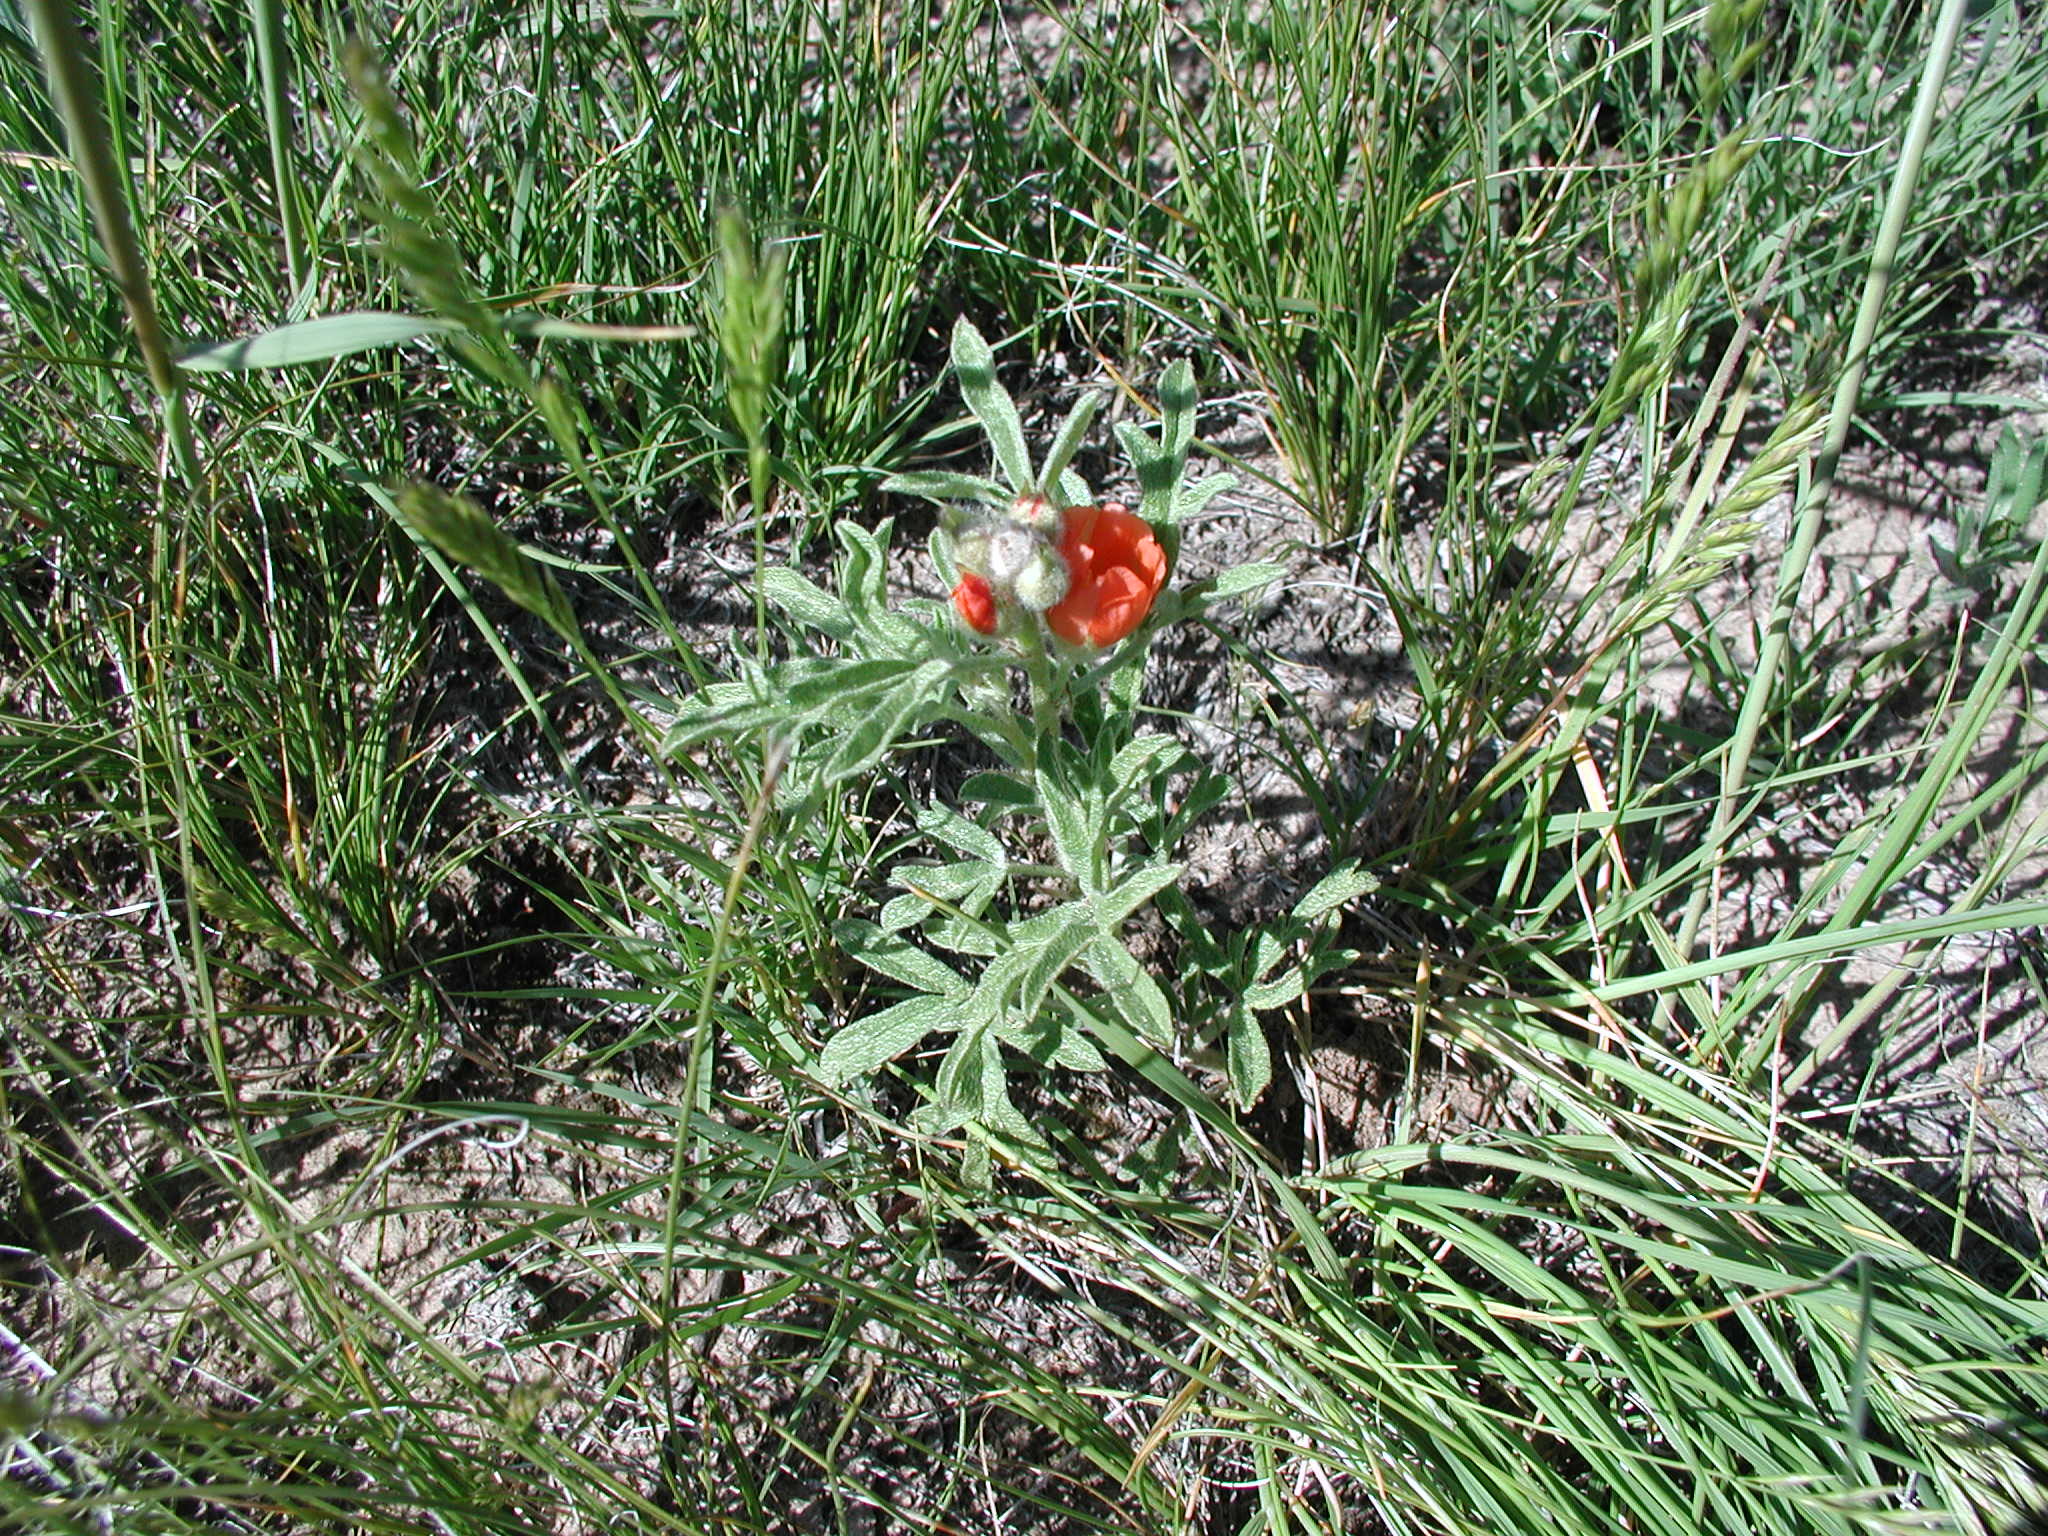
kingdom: Plantae
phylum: Tracheophyta
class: Magnoliopsida
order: Malvales
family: Malvaceae
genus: Sphaeralcea
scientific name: Sphaeralcea coccinea
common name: Moss-rose
